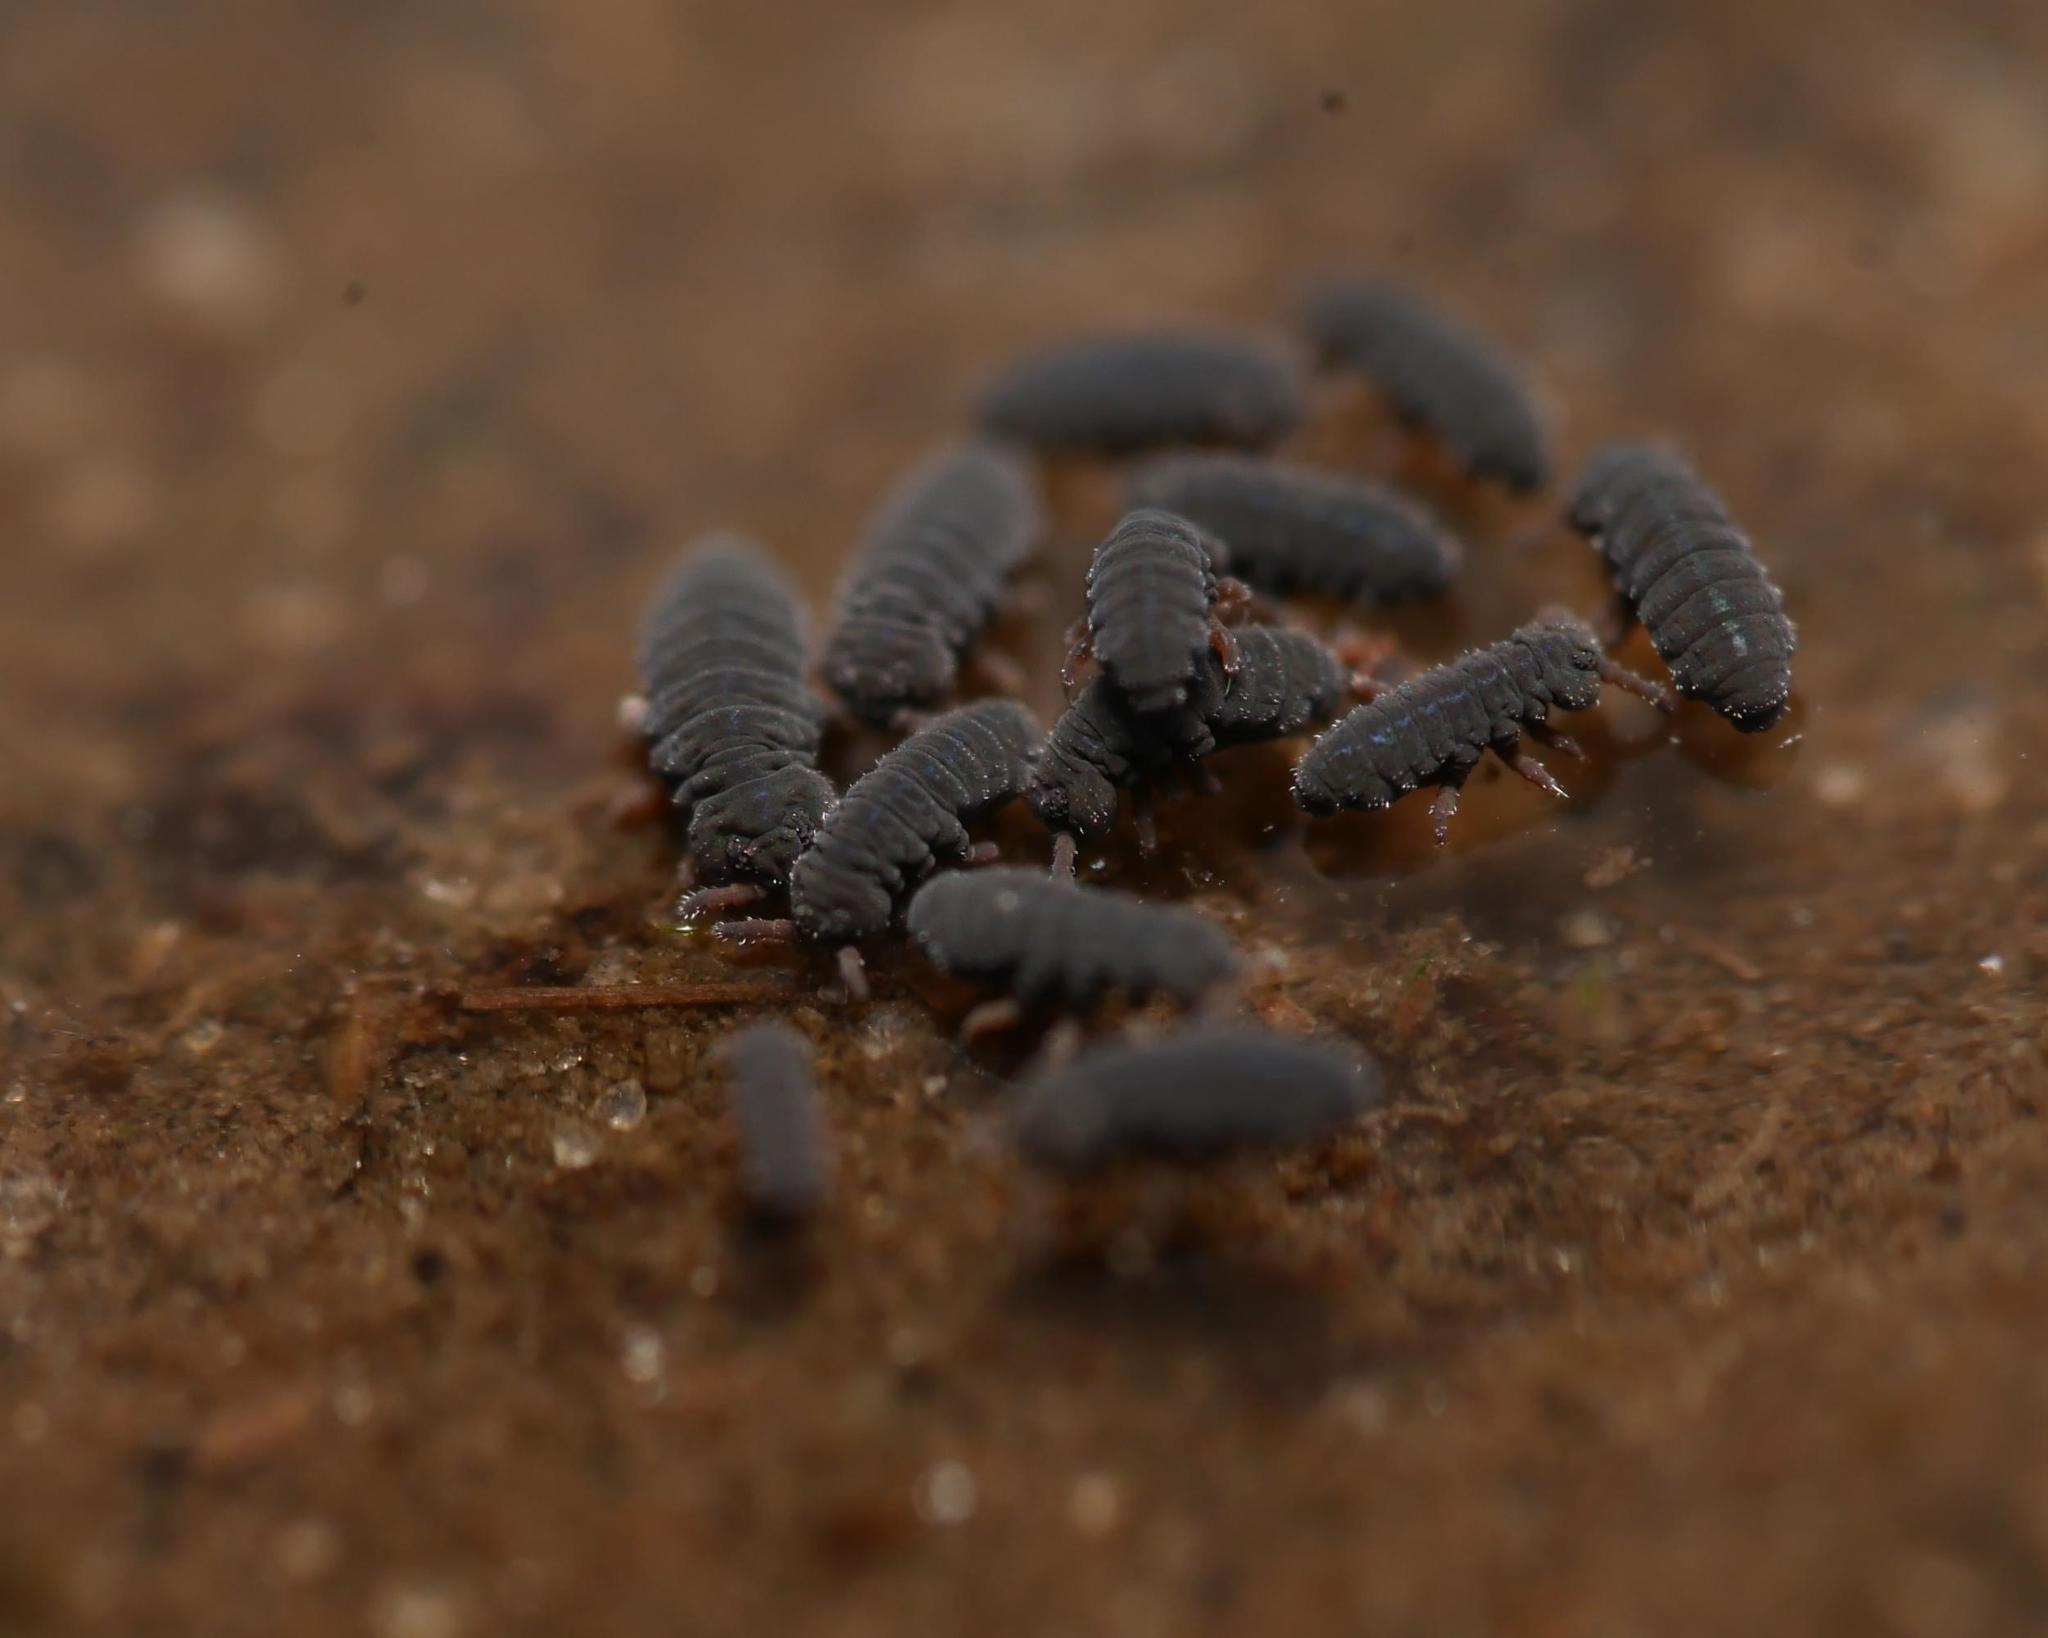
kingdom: Animalia
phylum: Arthropoda
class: Collembola
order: Poduromorpha
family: Poduridae
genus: Podura
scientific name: Podura aquatica
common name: Water springtail
